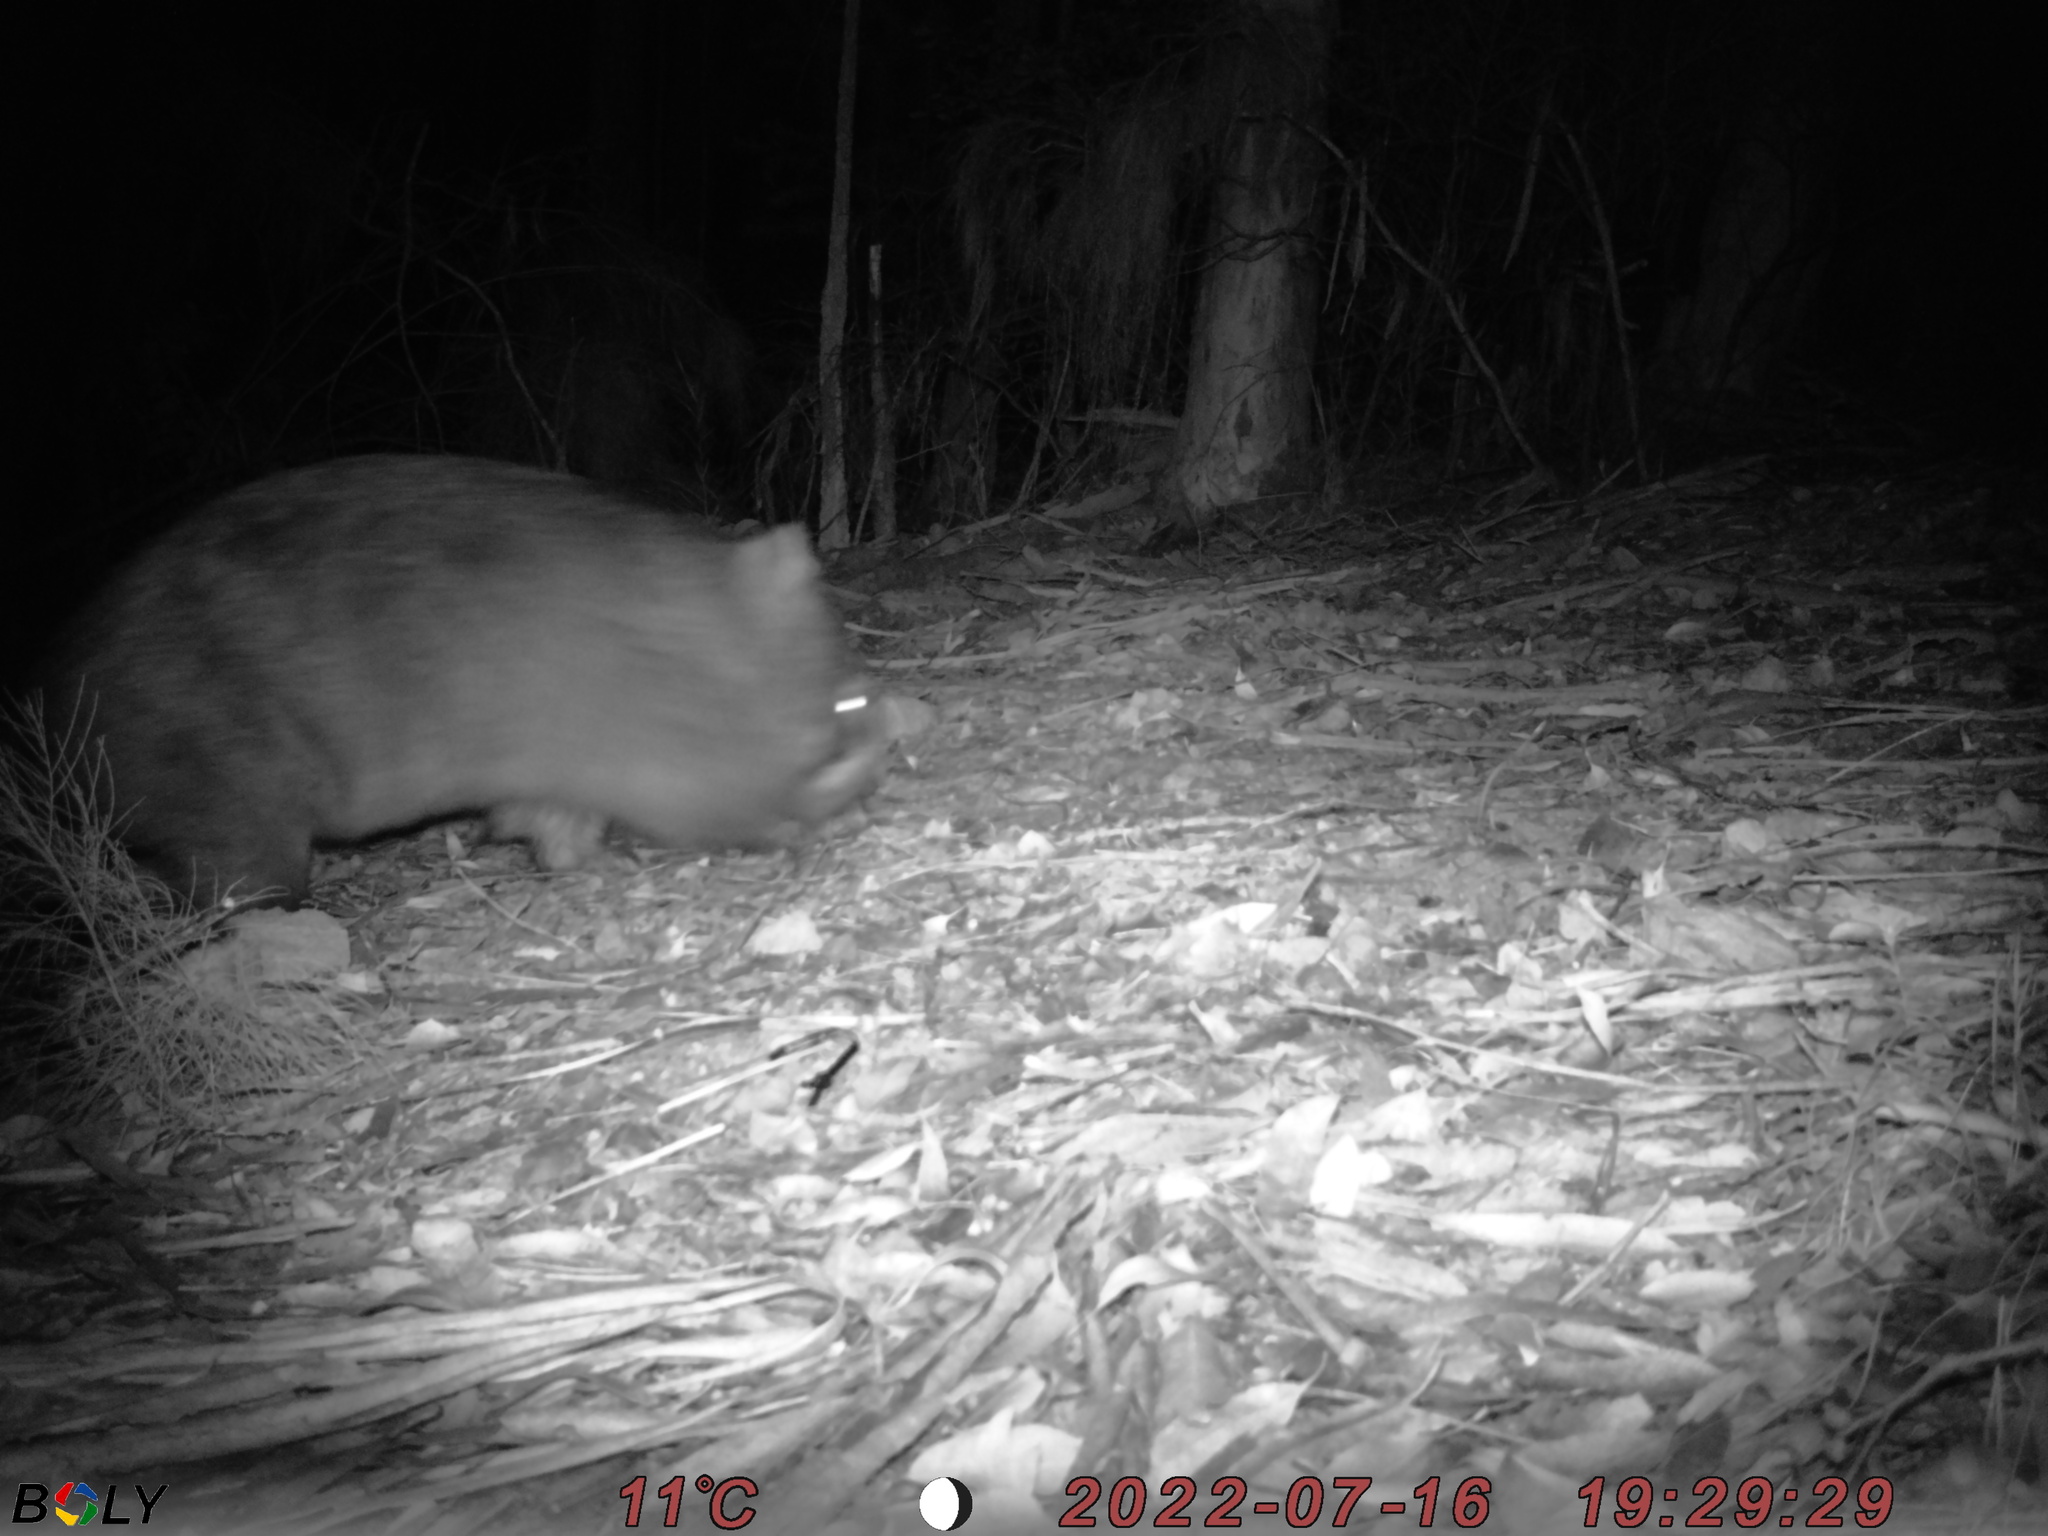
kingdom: Animalia
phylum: Chordata
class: Mammalia
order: Diprotodontia
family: Vombatidae
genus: Vombatus
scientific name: Vombatus ursinus
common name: Common wombat
